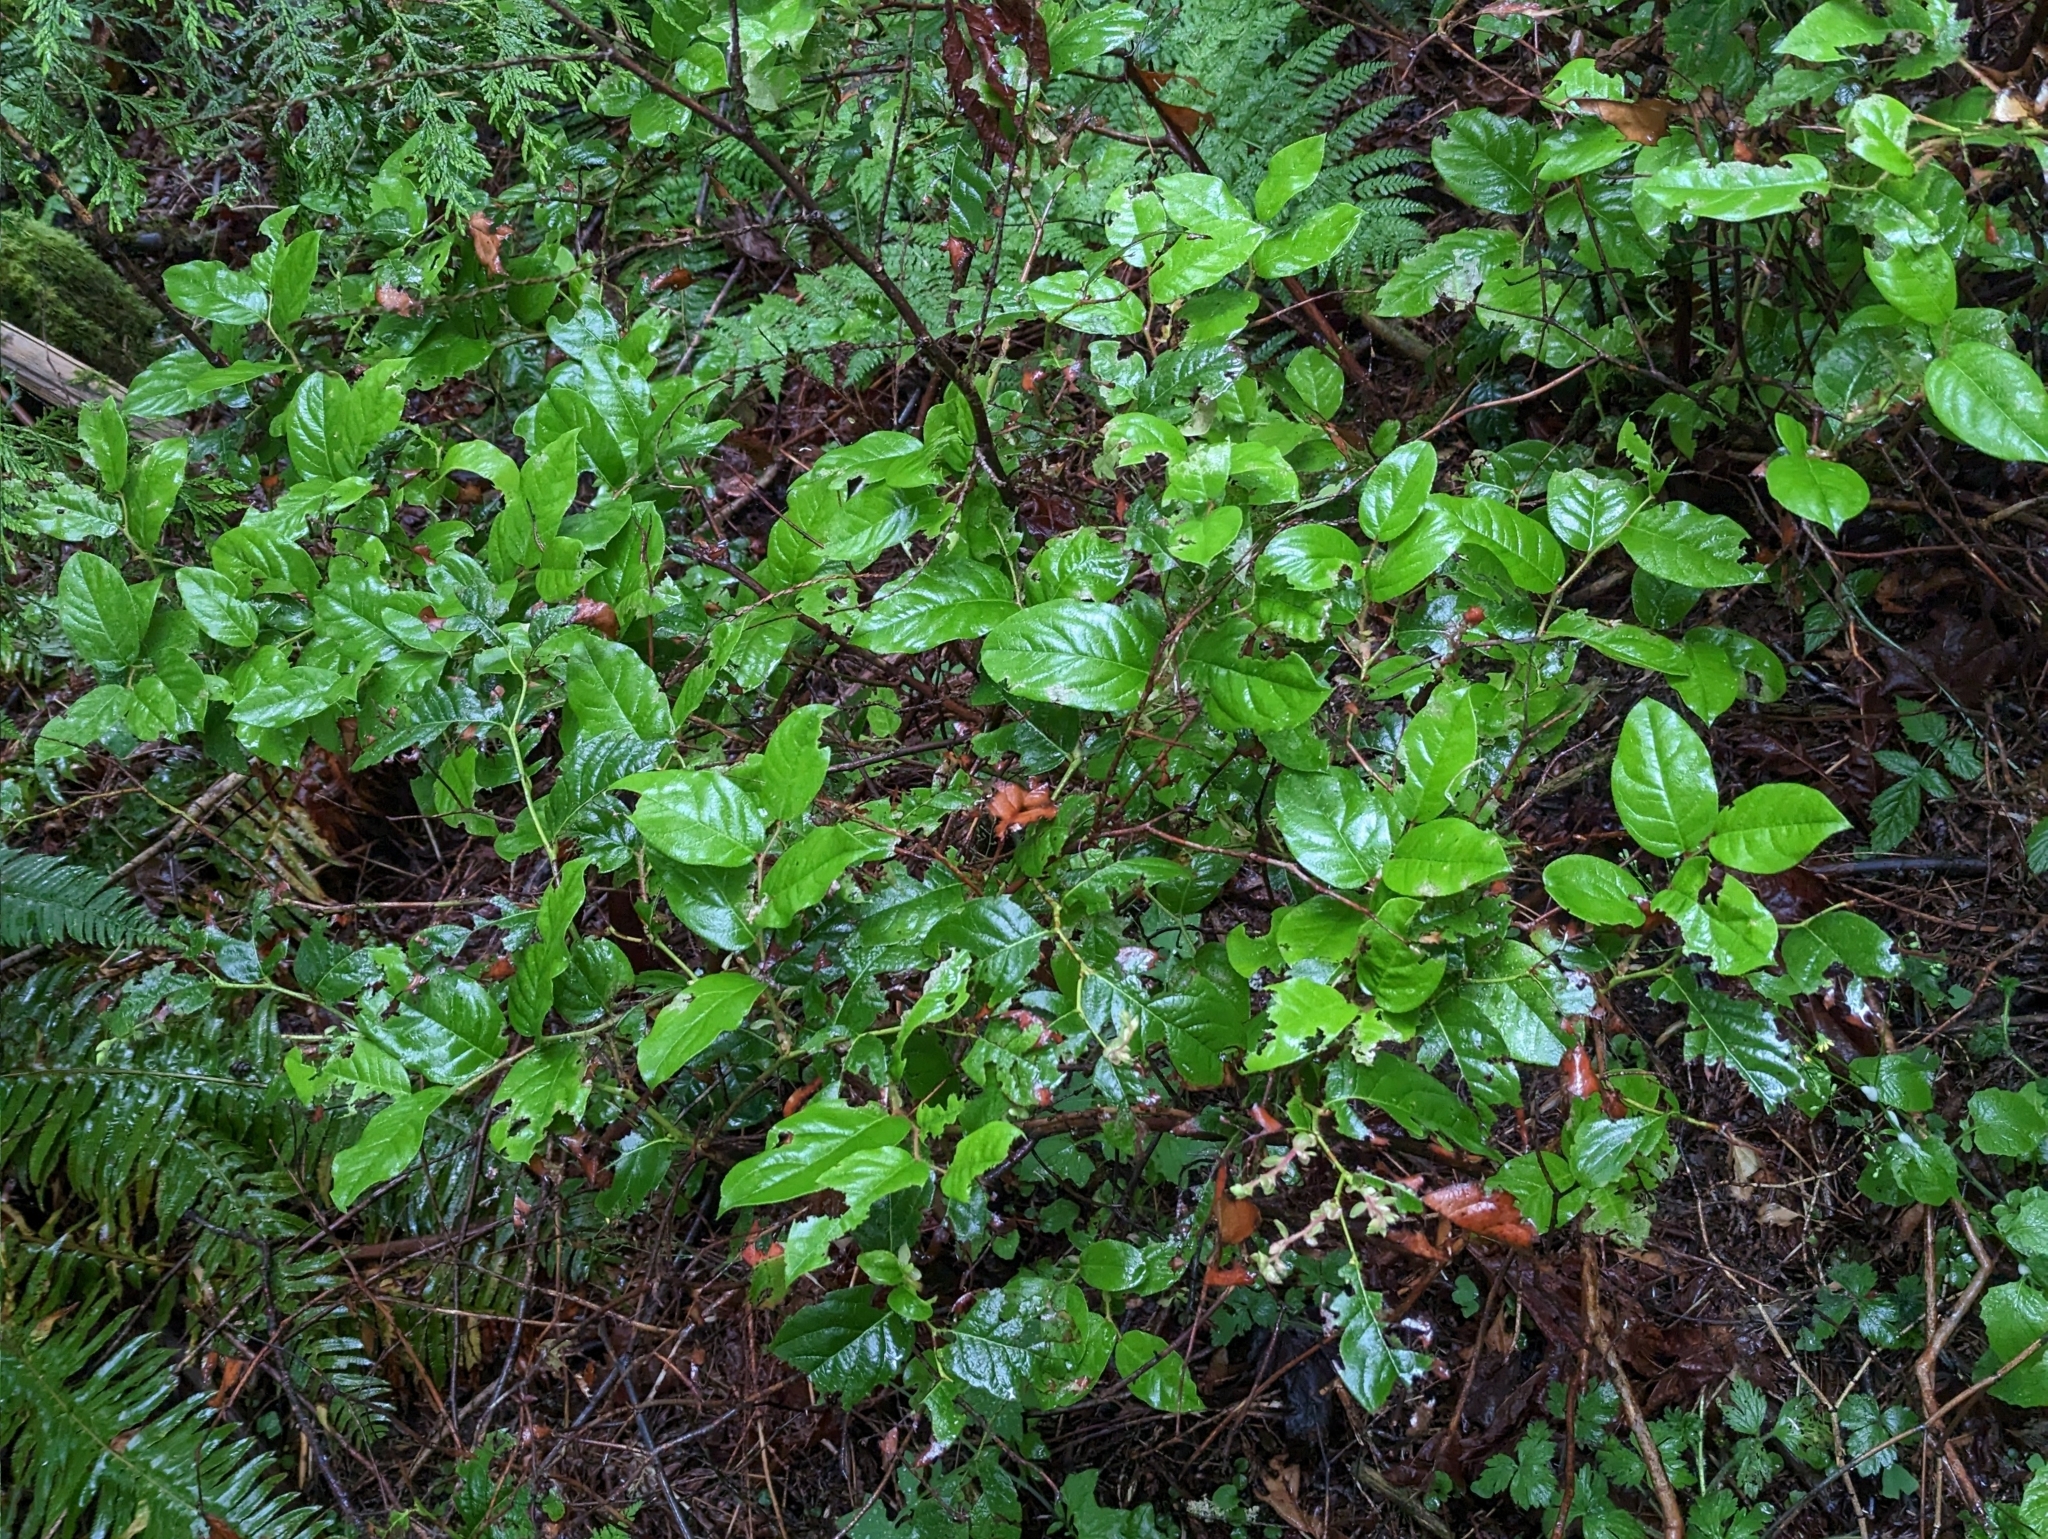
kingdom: Plantae
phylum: Tracheophyta
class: Magnoliopsida
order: Ericales
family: Ericaceae
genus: Gaultheria
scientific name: Gaultheria shallon
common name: Shallon
